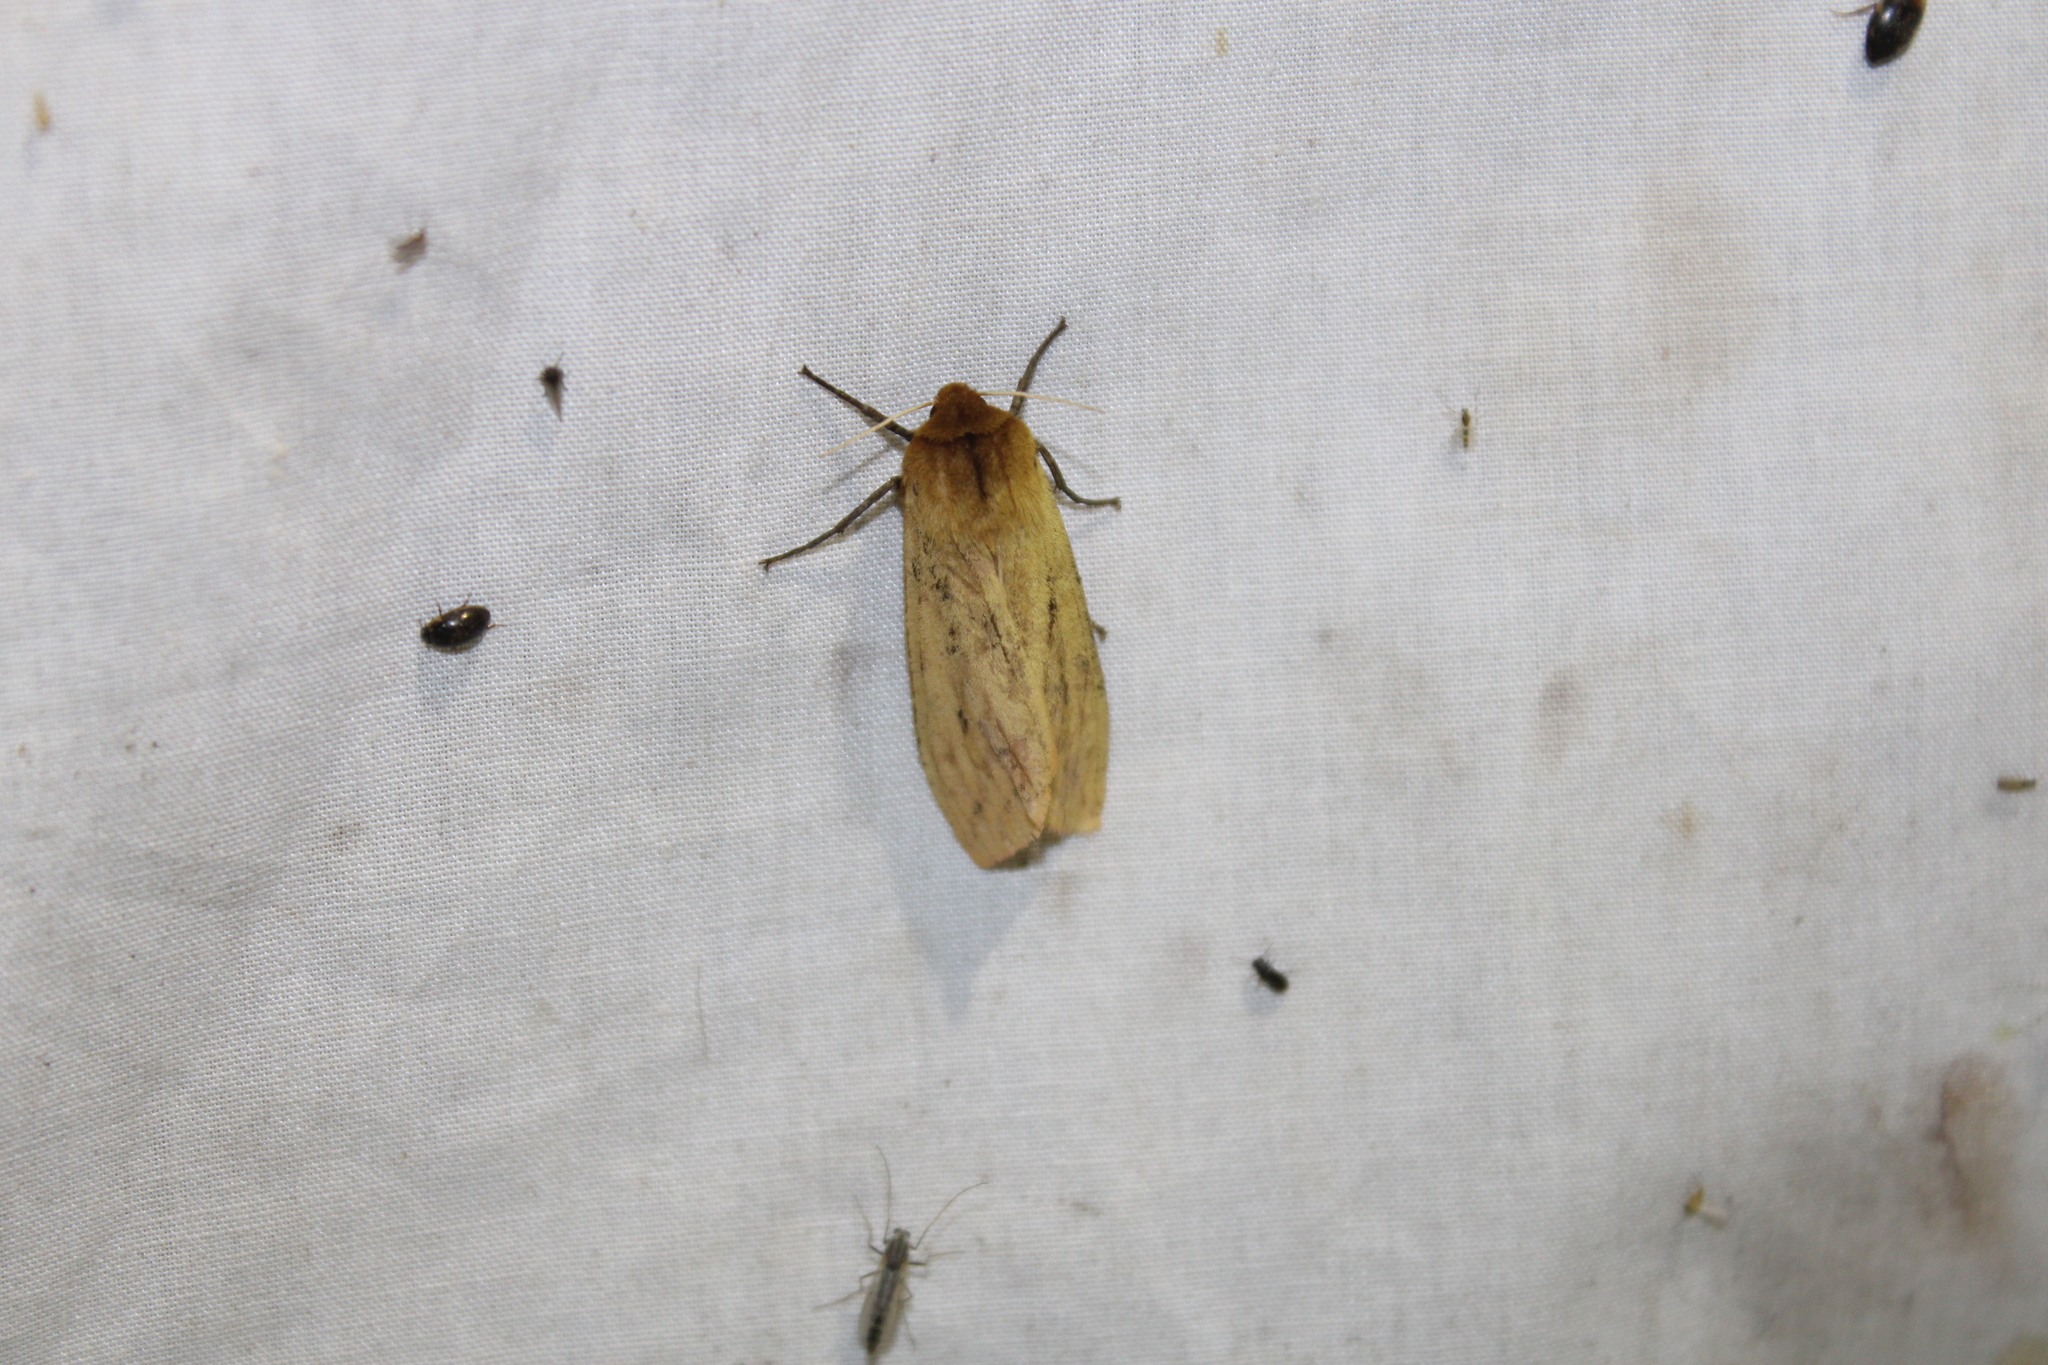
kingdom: Animalia
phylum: Arthropoda
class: Insecta
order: Lepidoptera
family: Erebidae
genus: Pyrrharctia
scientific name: Pyrrharctia isabella
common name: Isabella tiger moth
